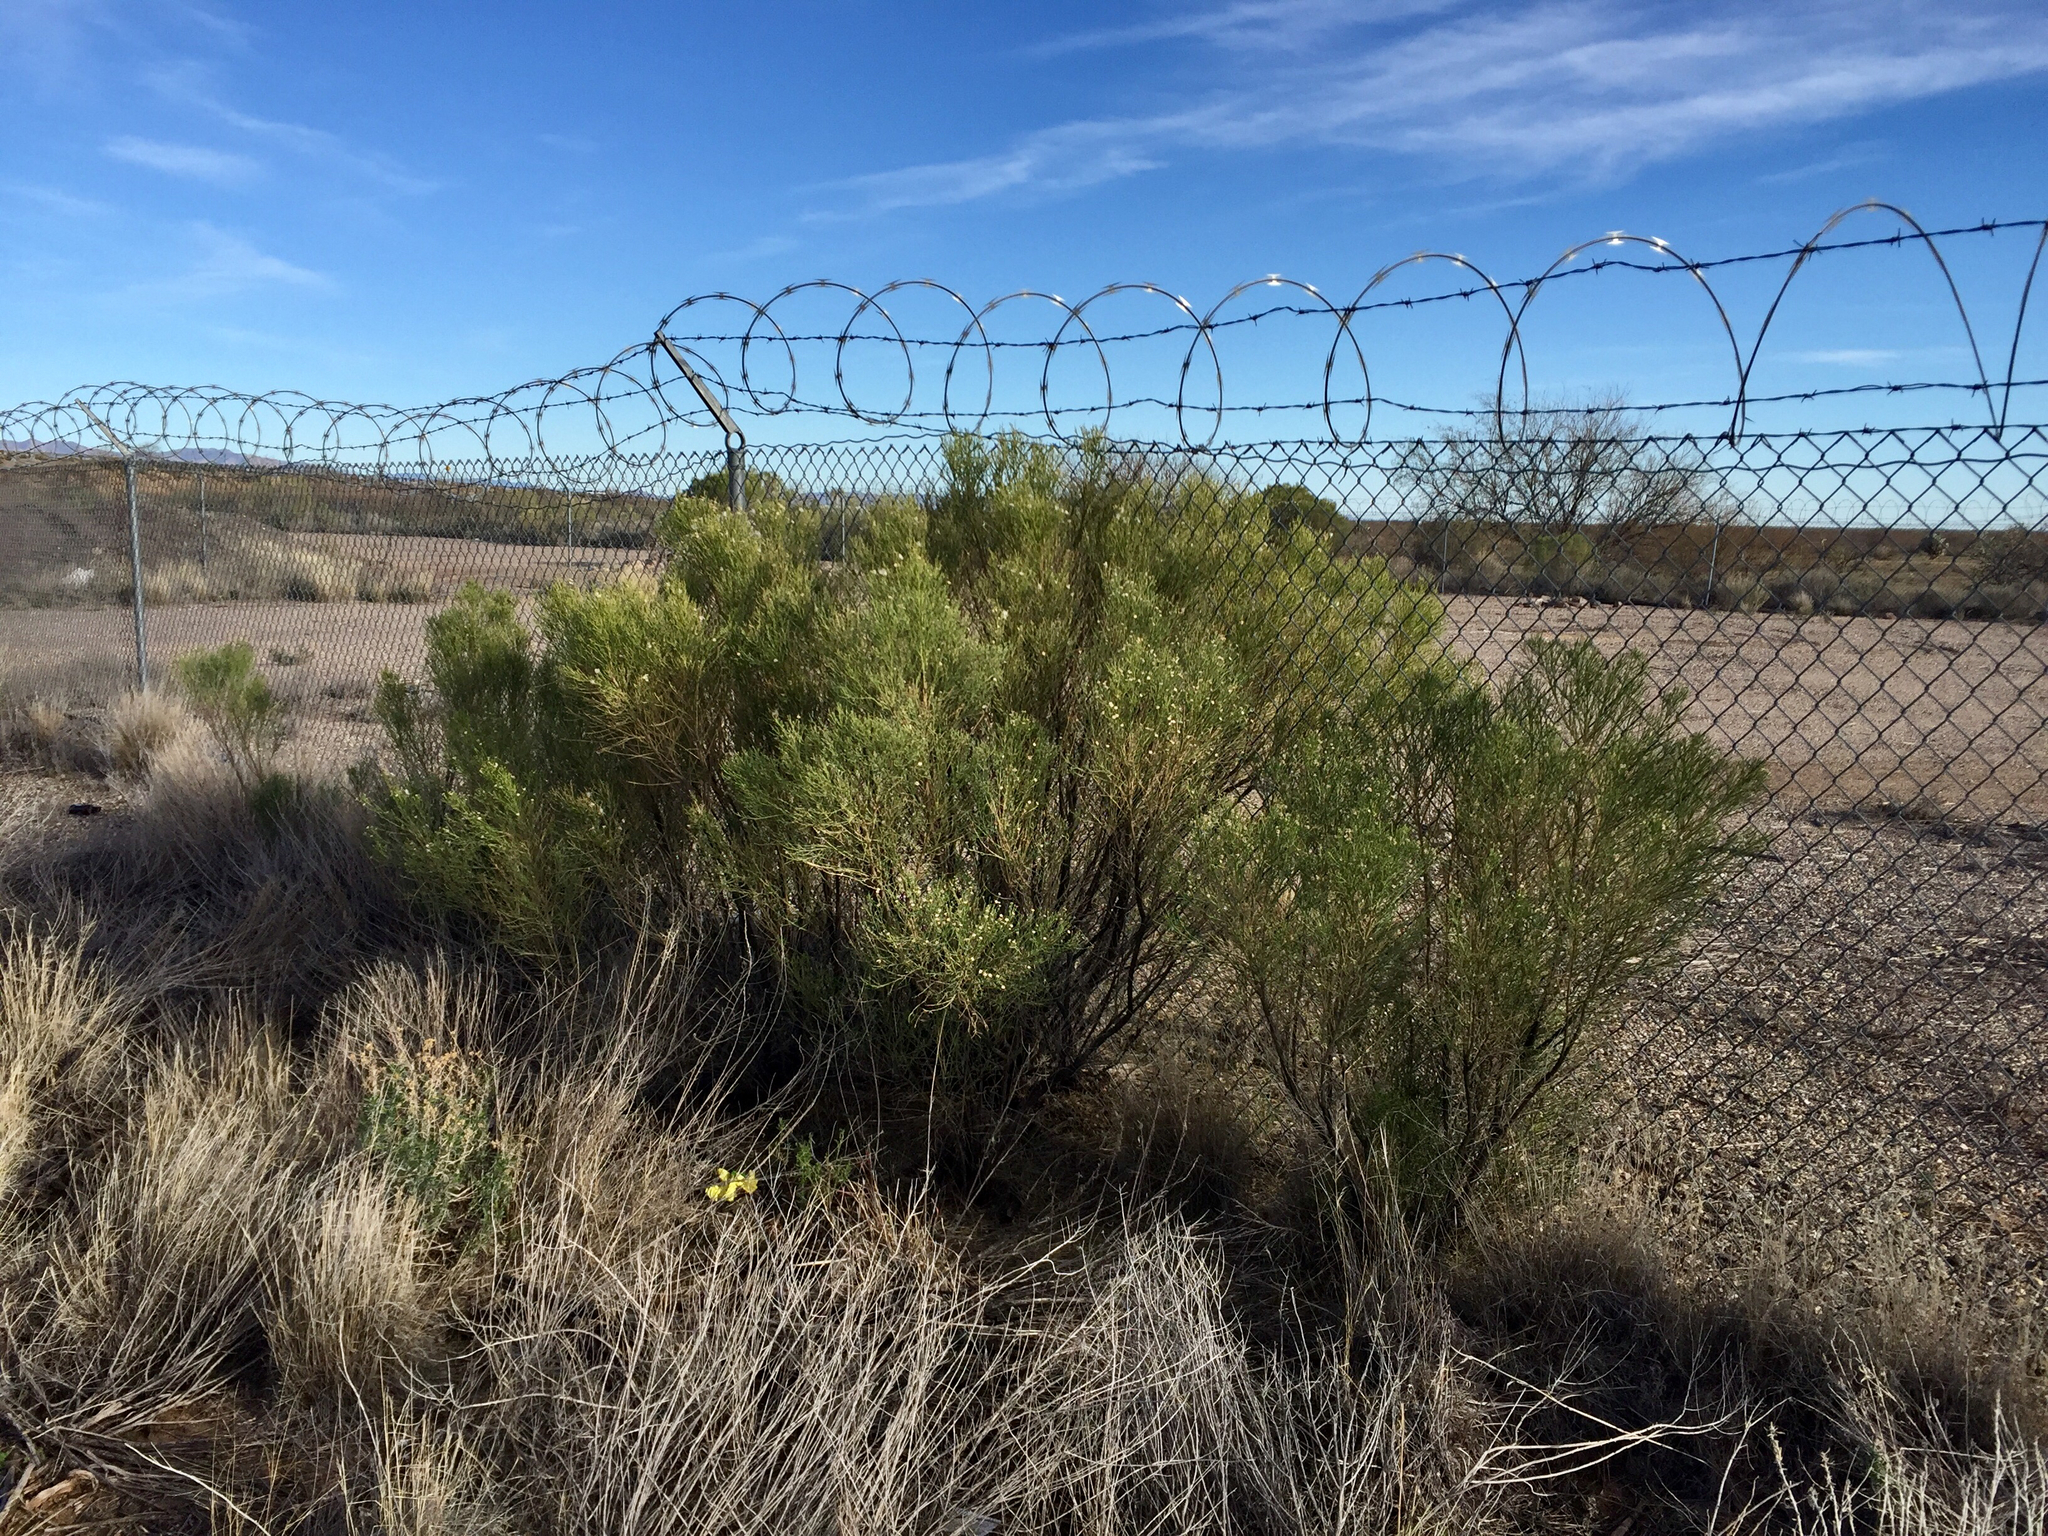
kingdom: Plantae
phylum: Tracheophyta
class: Magnoliopsida
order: Asterales
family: Asteraceae
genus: Baccharis
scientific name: Baccharis sarothroides
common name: Desert-broom
